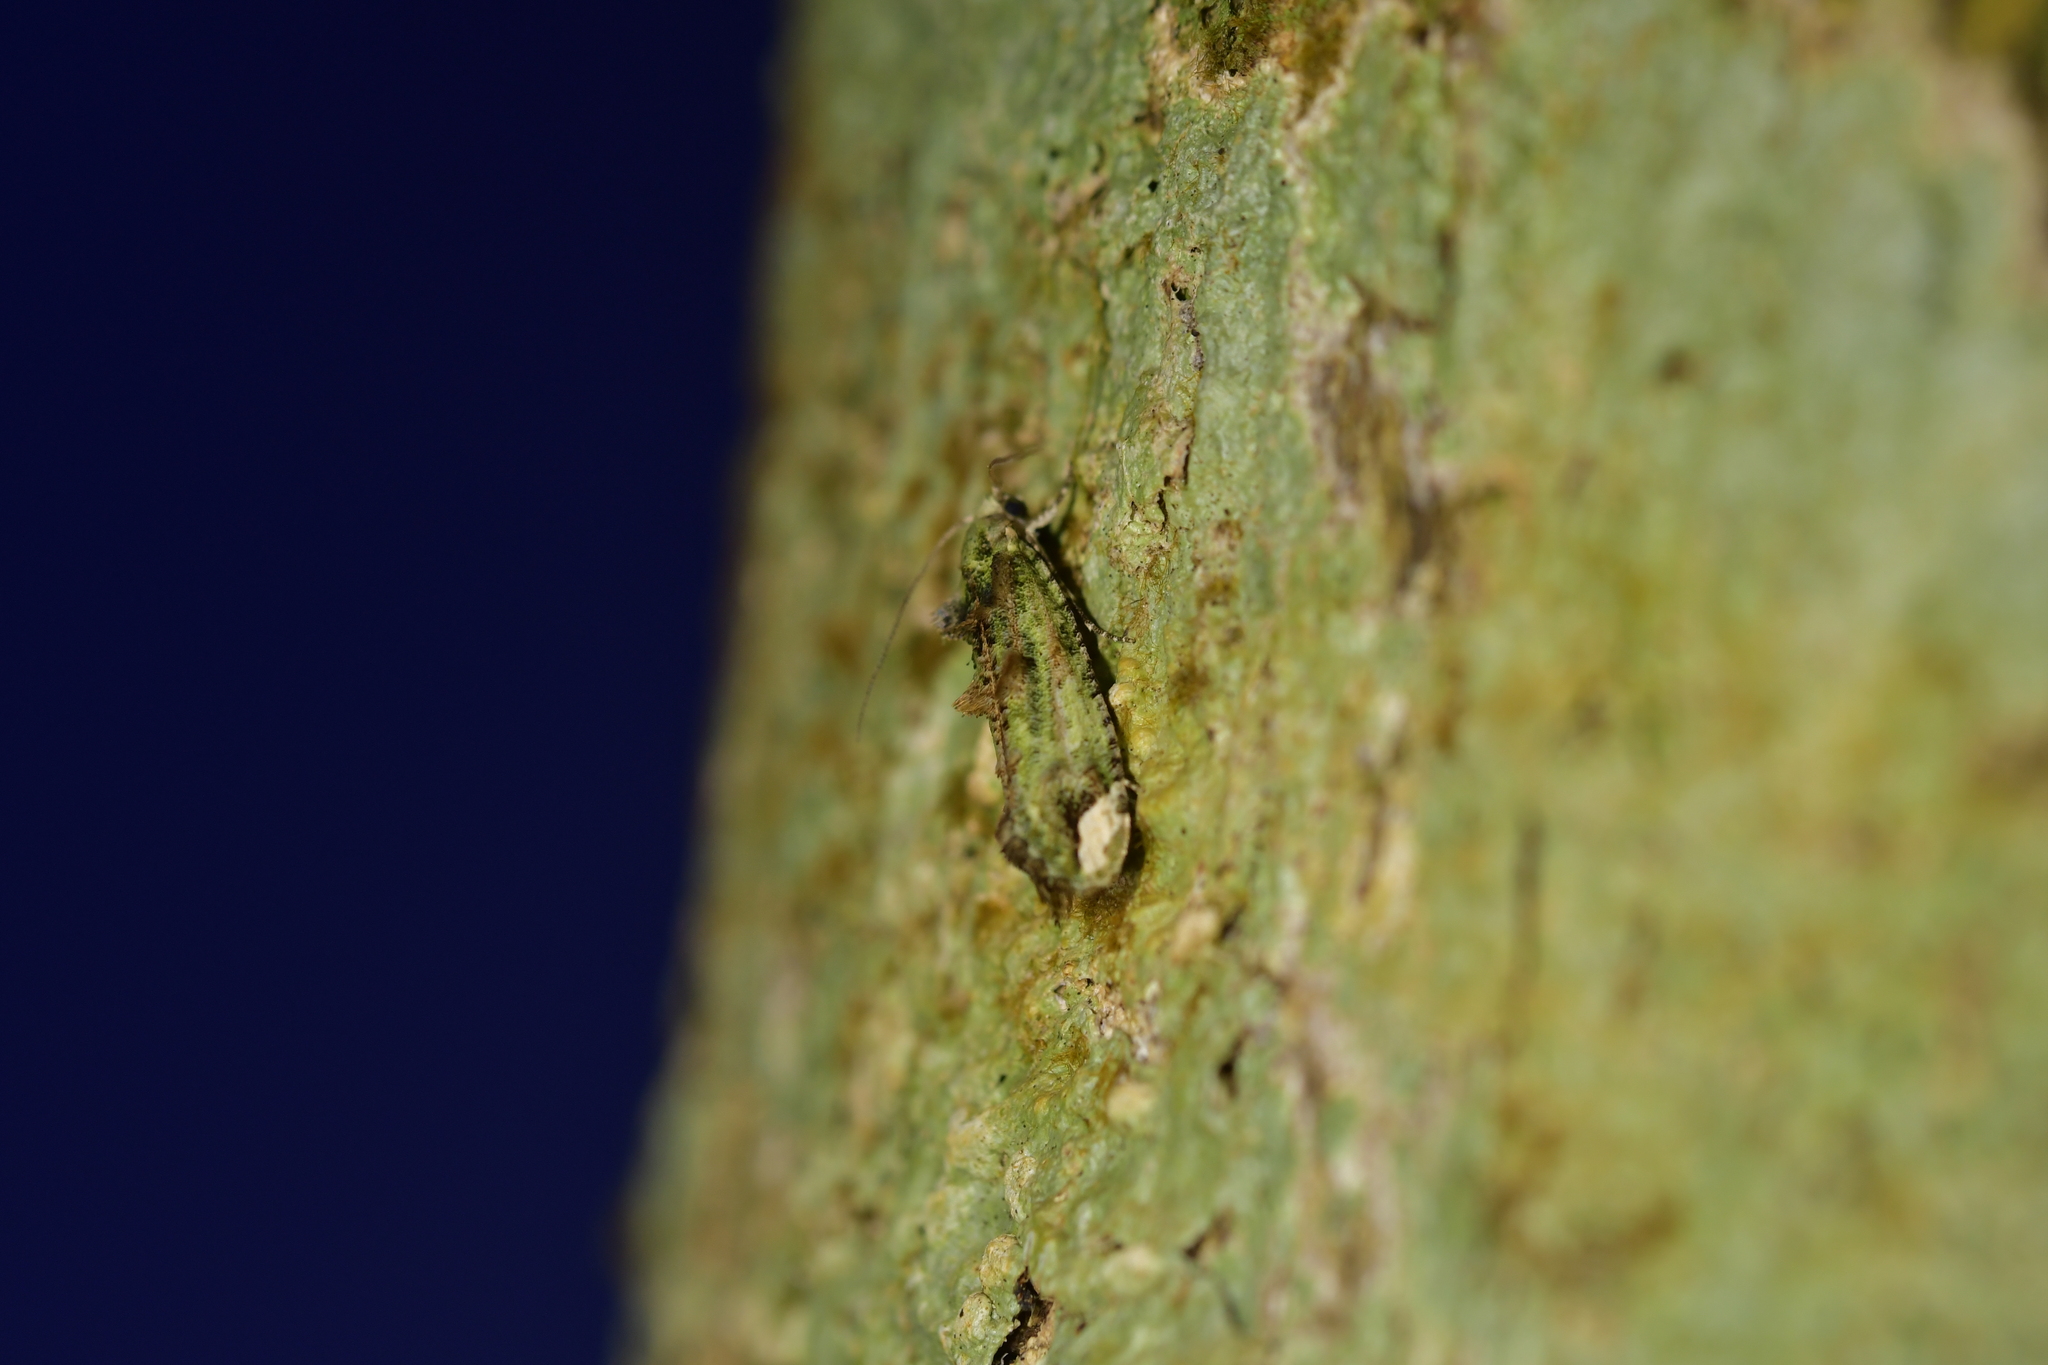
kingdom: Animalia
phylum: Arthropoda
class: Insecta
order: Lepidoptera
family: Tineidae
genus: Lysiphragma
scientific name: Lysiphragma mixochlora
